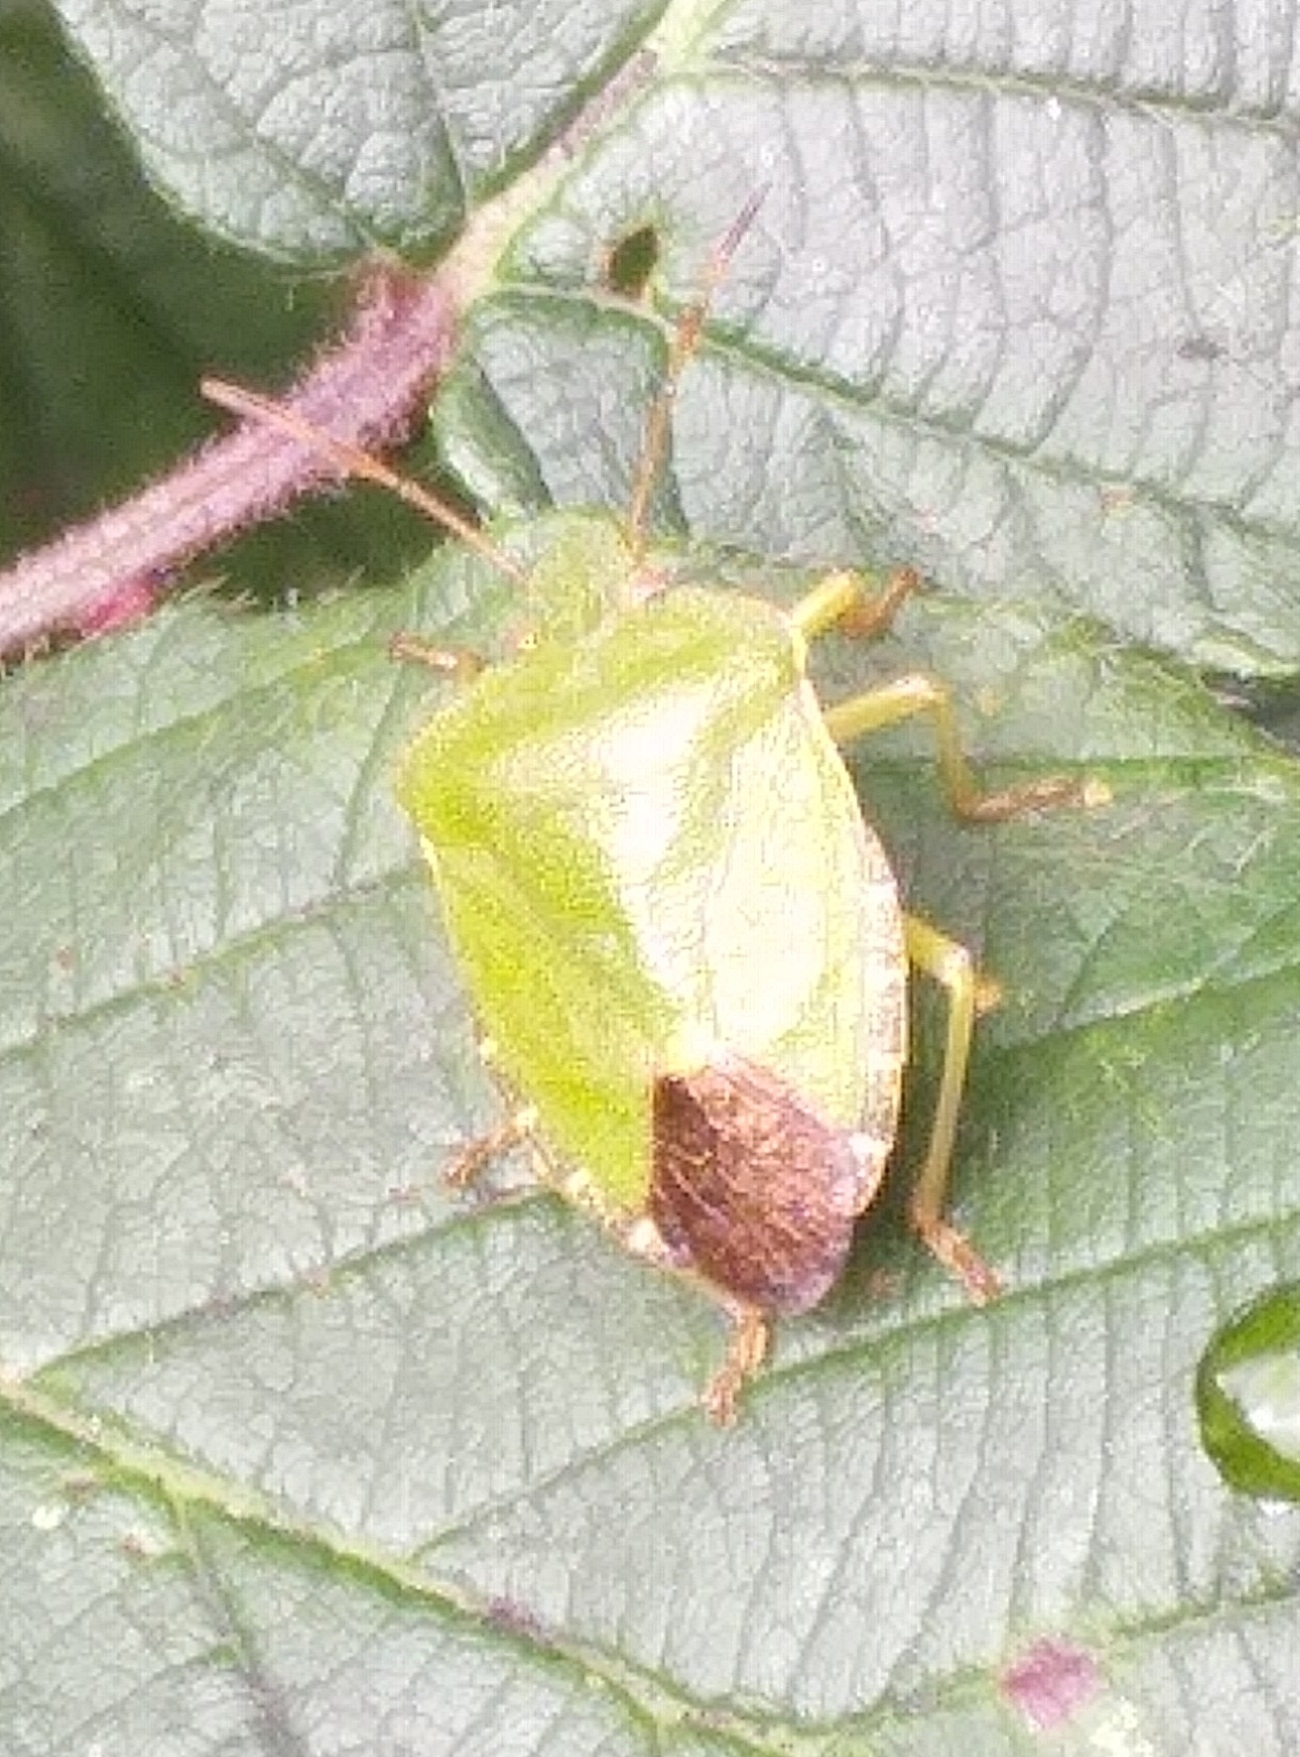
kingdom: Animalia
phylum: Arthropoda
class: Insecta
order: Hemiptera
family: Pentatomidae
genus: Palomena
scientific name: Palomena prasina
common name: Green shieldbug
